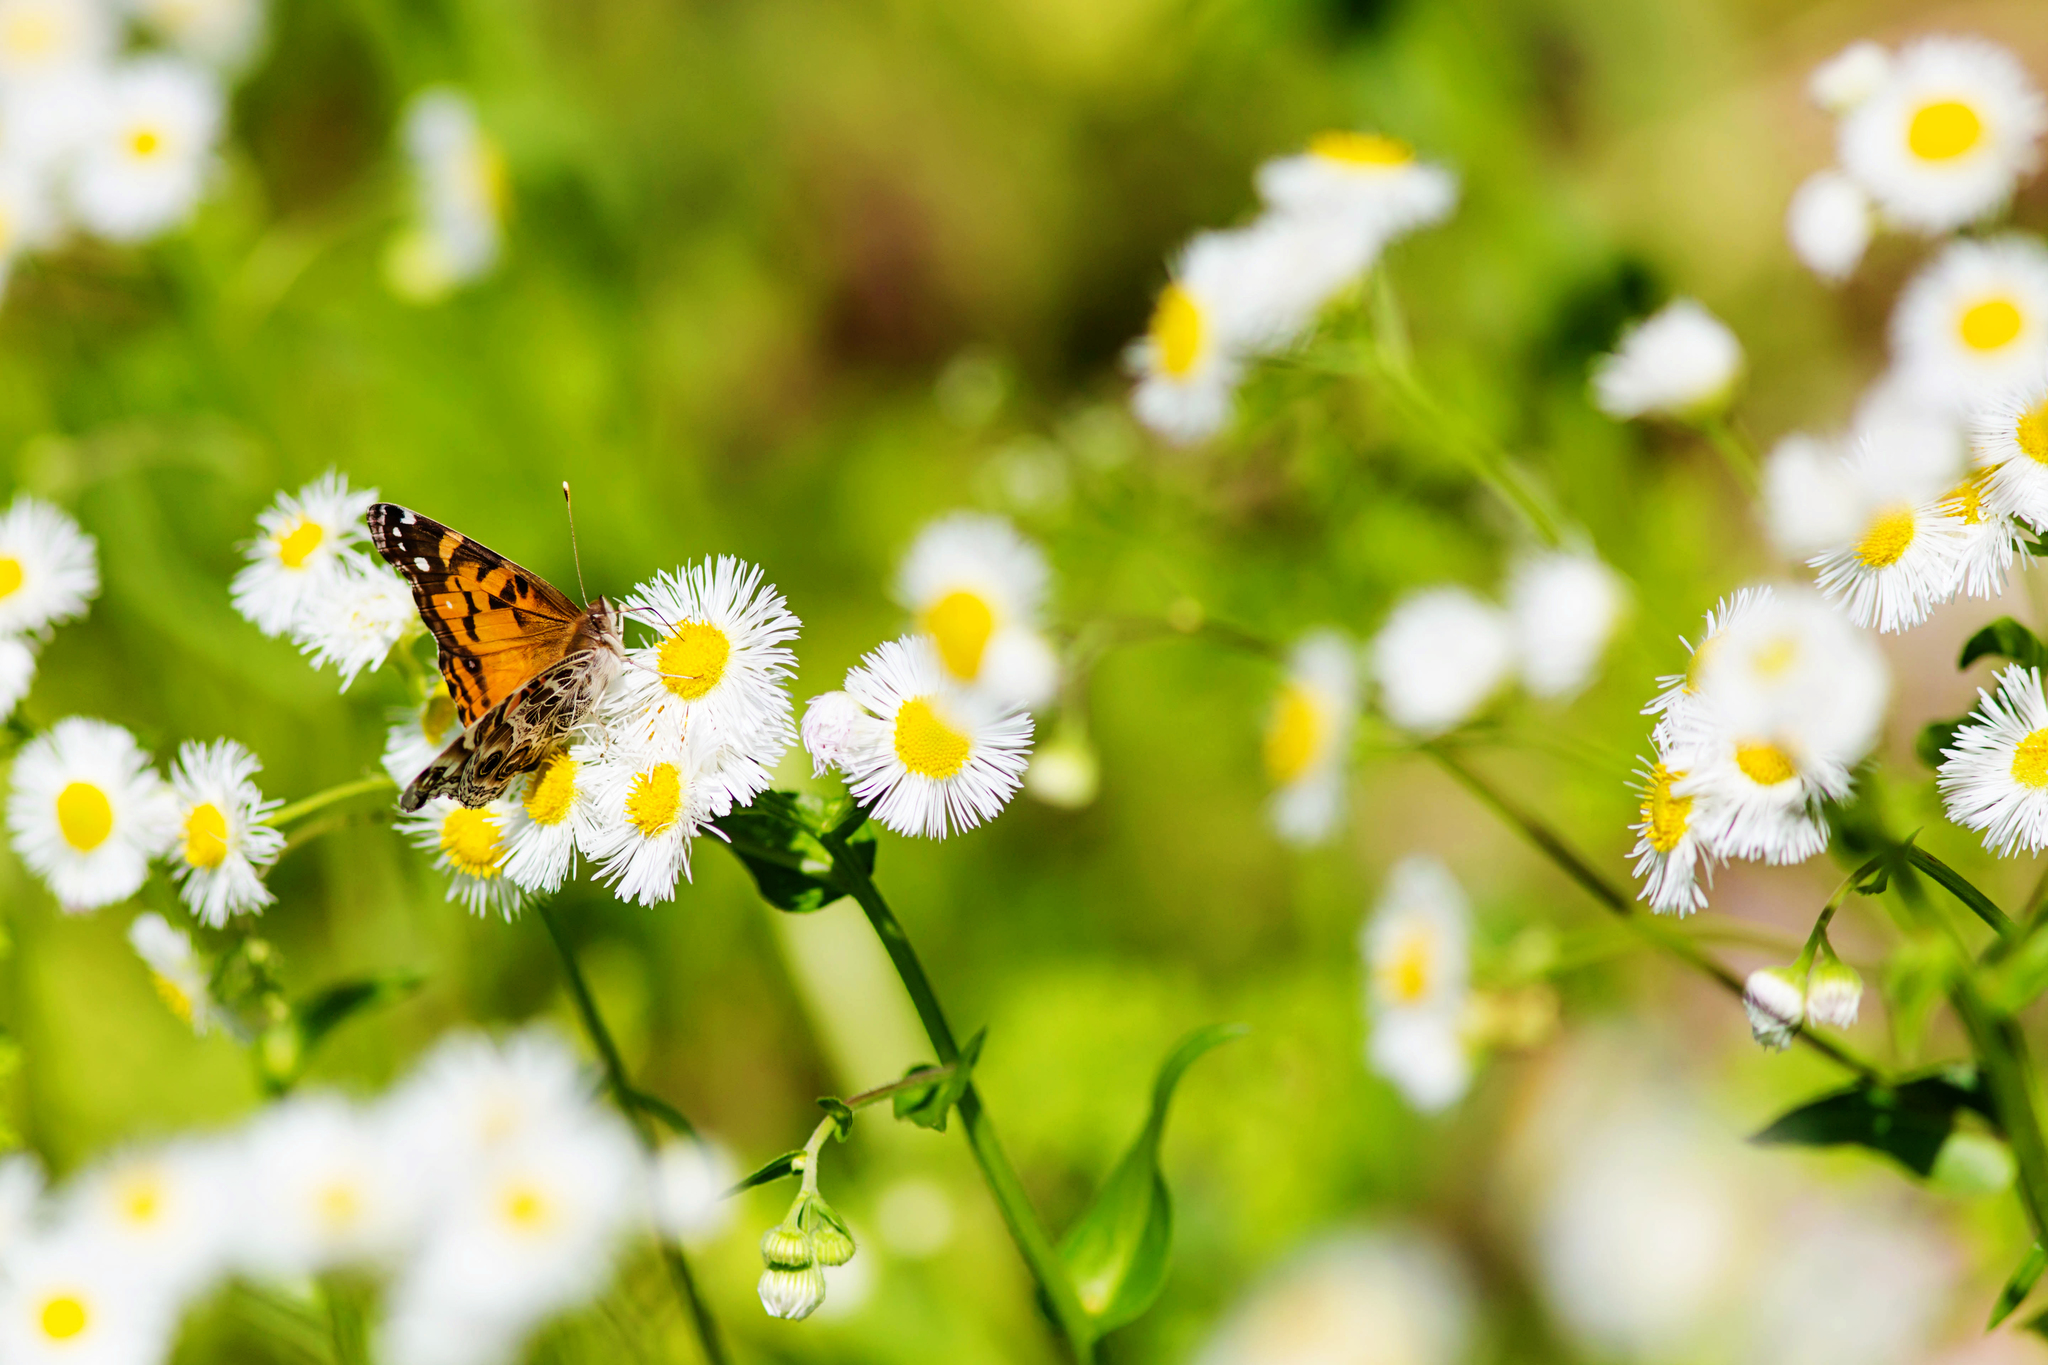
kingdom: Animalia
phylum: Arthropoda
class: Insecta
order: Lepidoptera
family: Nymphalidae
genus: Vanessa
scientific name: Vanessa virginiensis
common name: American lady
